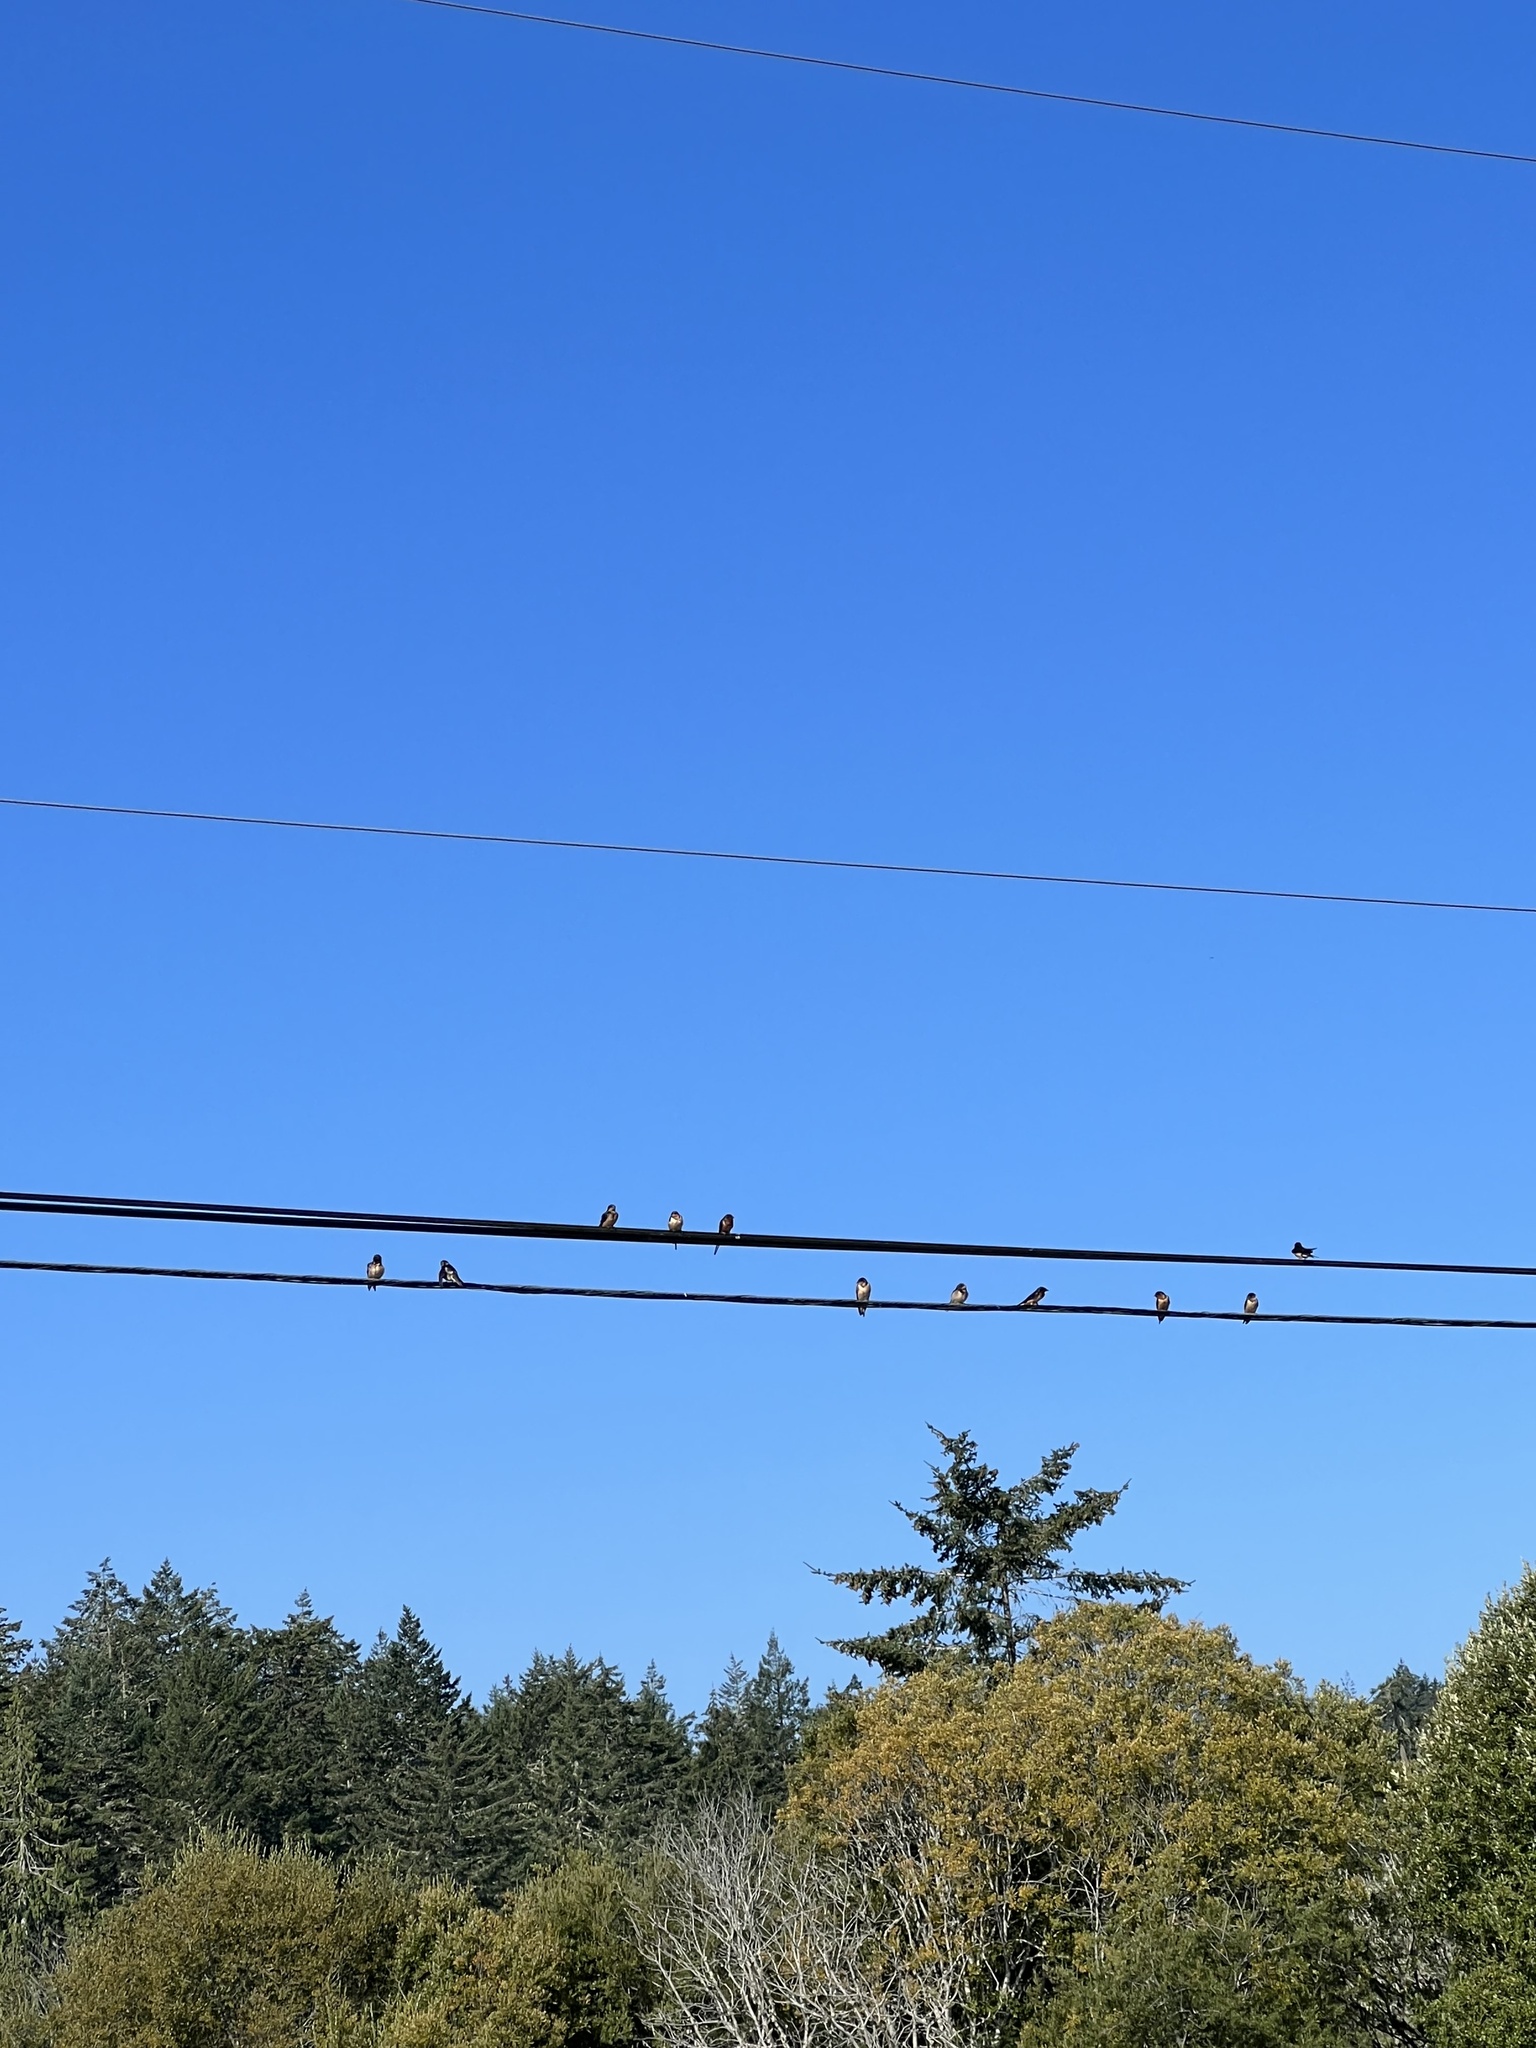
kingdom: Animalia
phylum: Chordata
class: Aves
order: Passeriformes
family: Hirundinidae
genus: Hirundo
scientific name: Hirundo rustica
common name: Barn swallow
